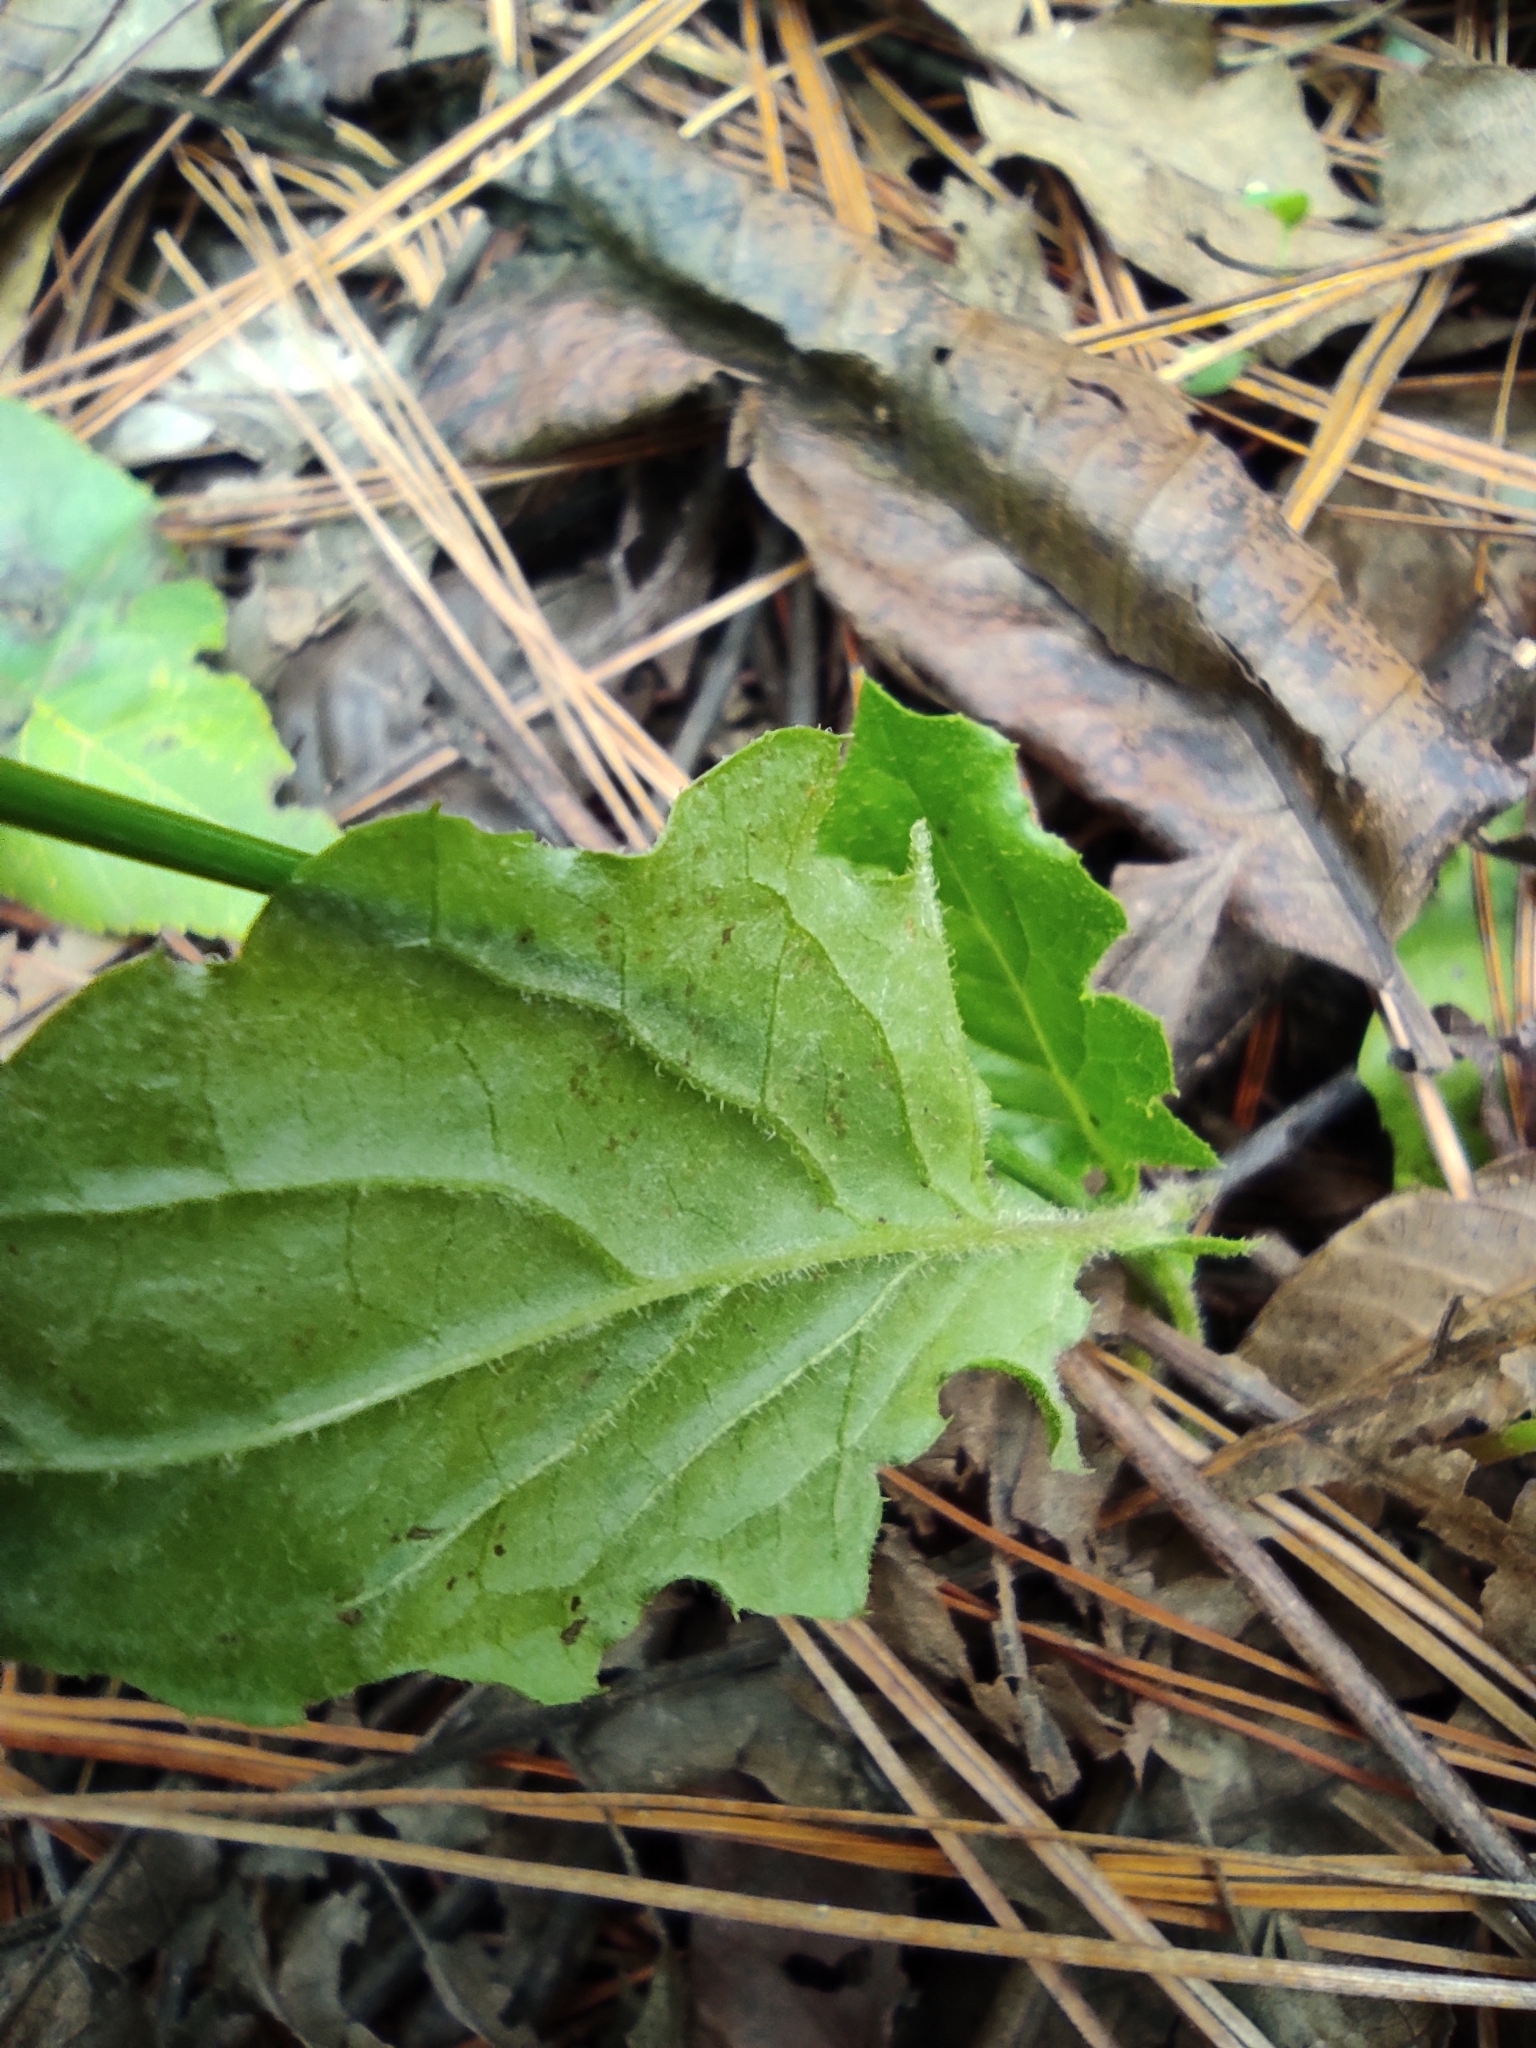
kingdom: Plantae
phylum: Tracheophyta
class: Magnoliopsida
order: Asterales
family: Asteraceae
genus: Youngia
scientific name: Youngia japonica
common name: Oriental false hawksbeard
